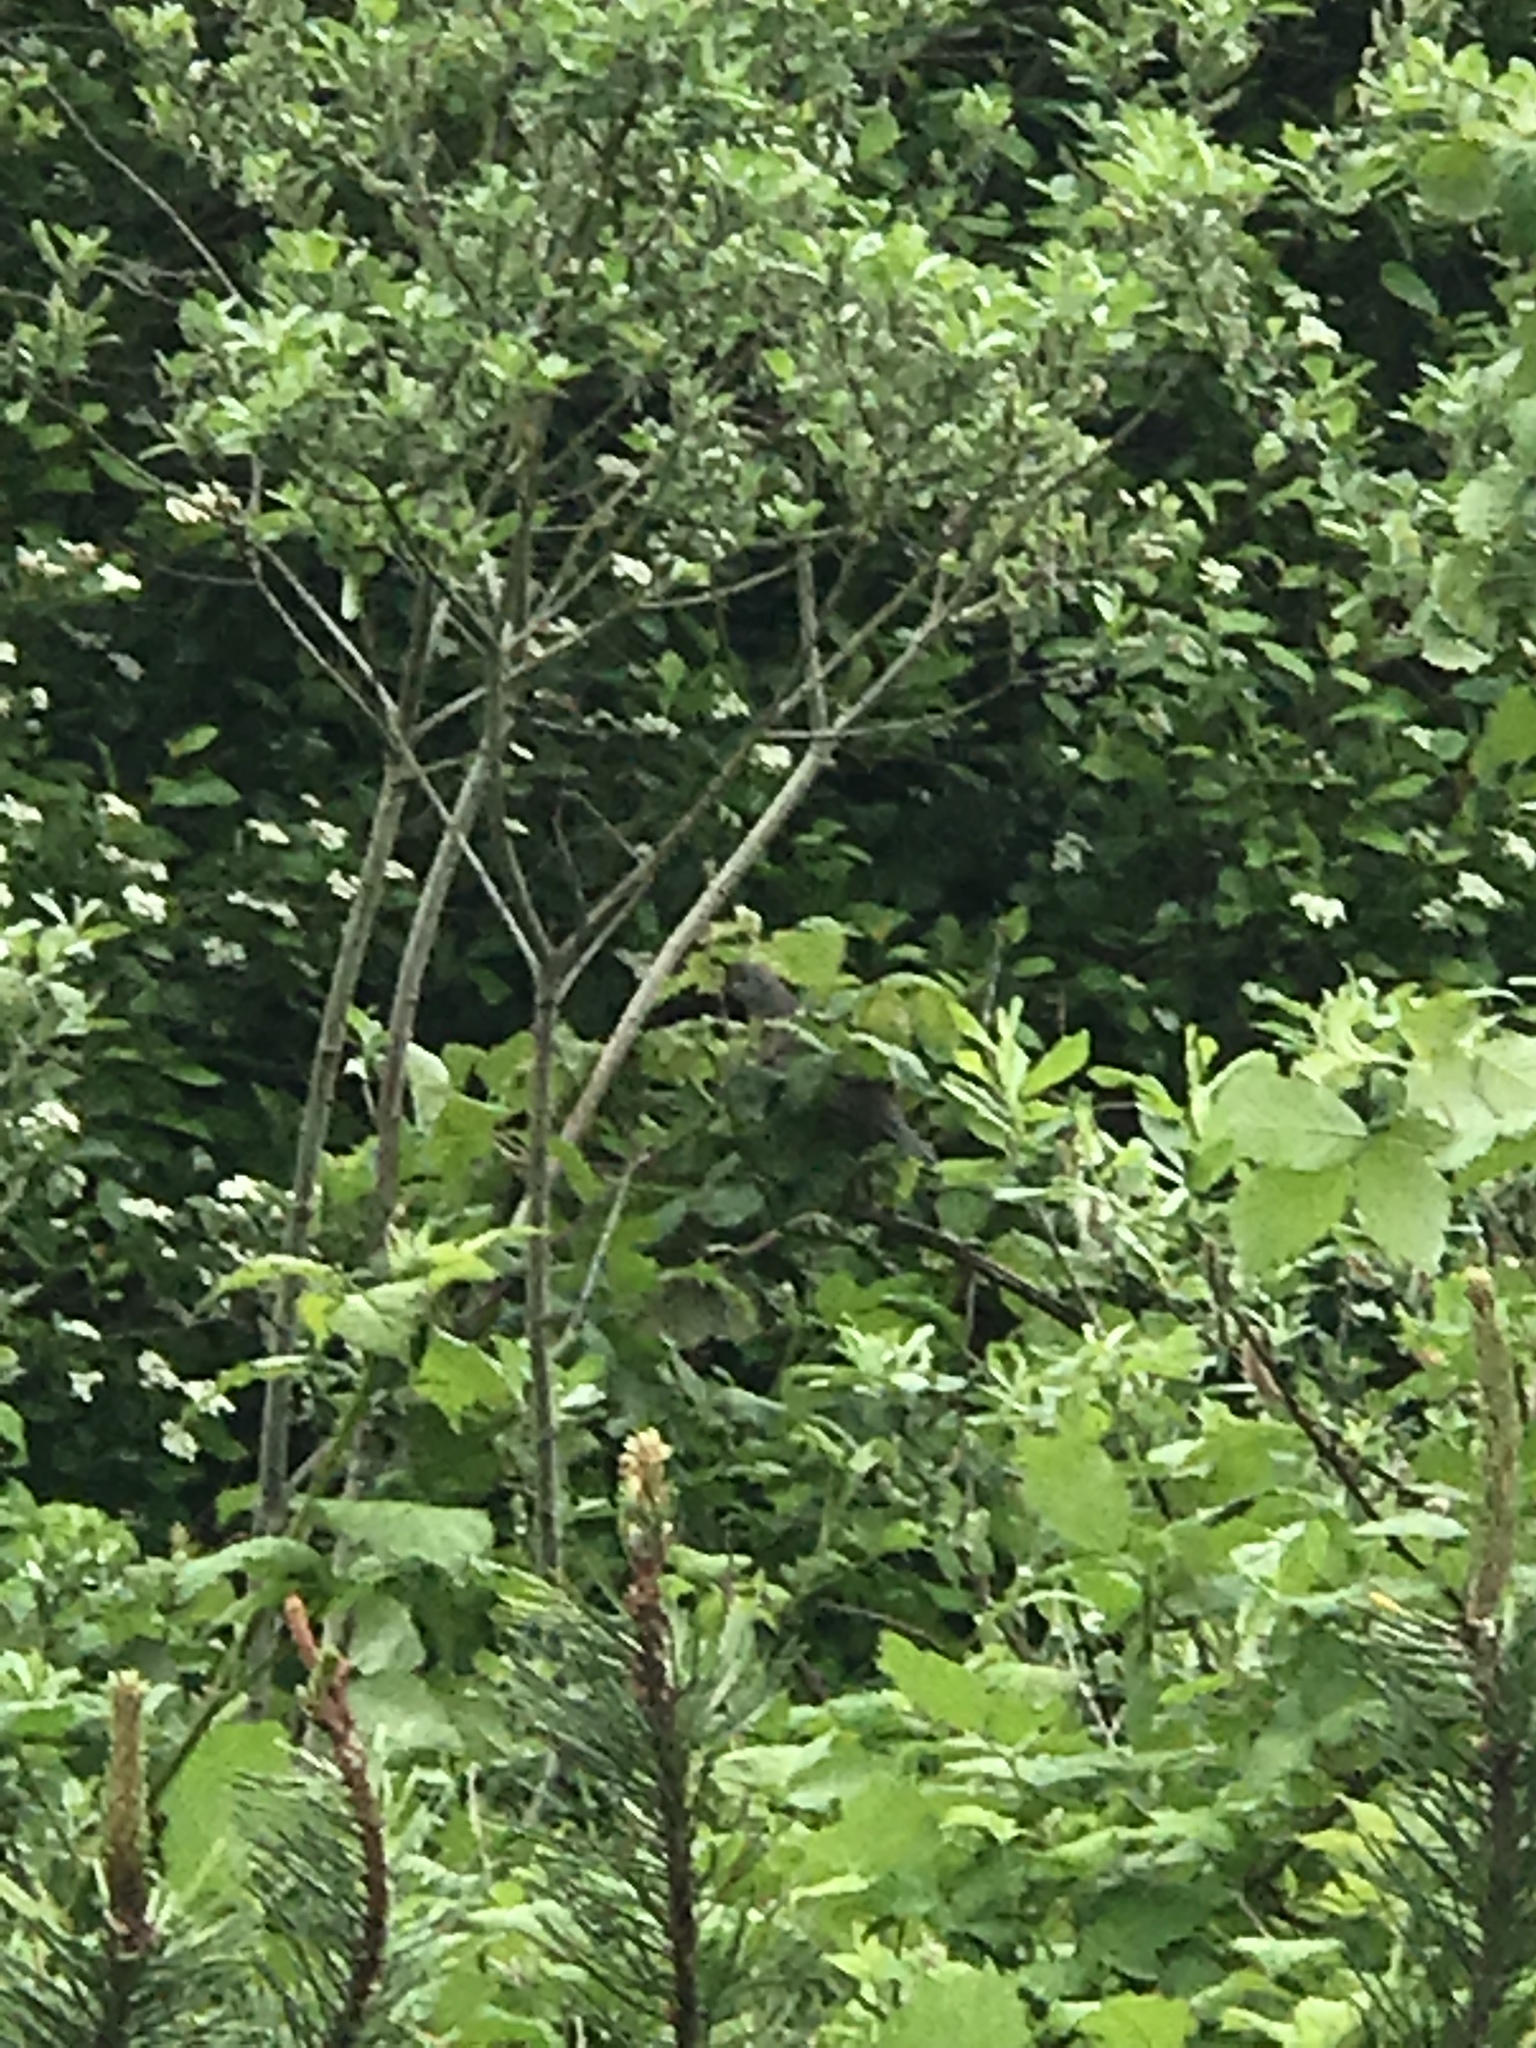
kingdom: Animalia
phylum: Chordata
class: Aves
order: Galliformes
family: Odontophoridae
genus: Callipepla
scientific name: Callipepla californica
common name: California quail
